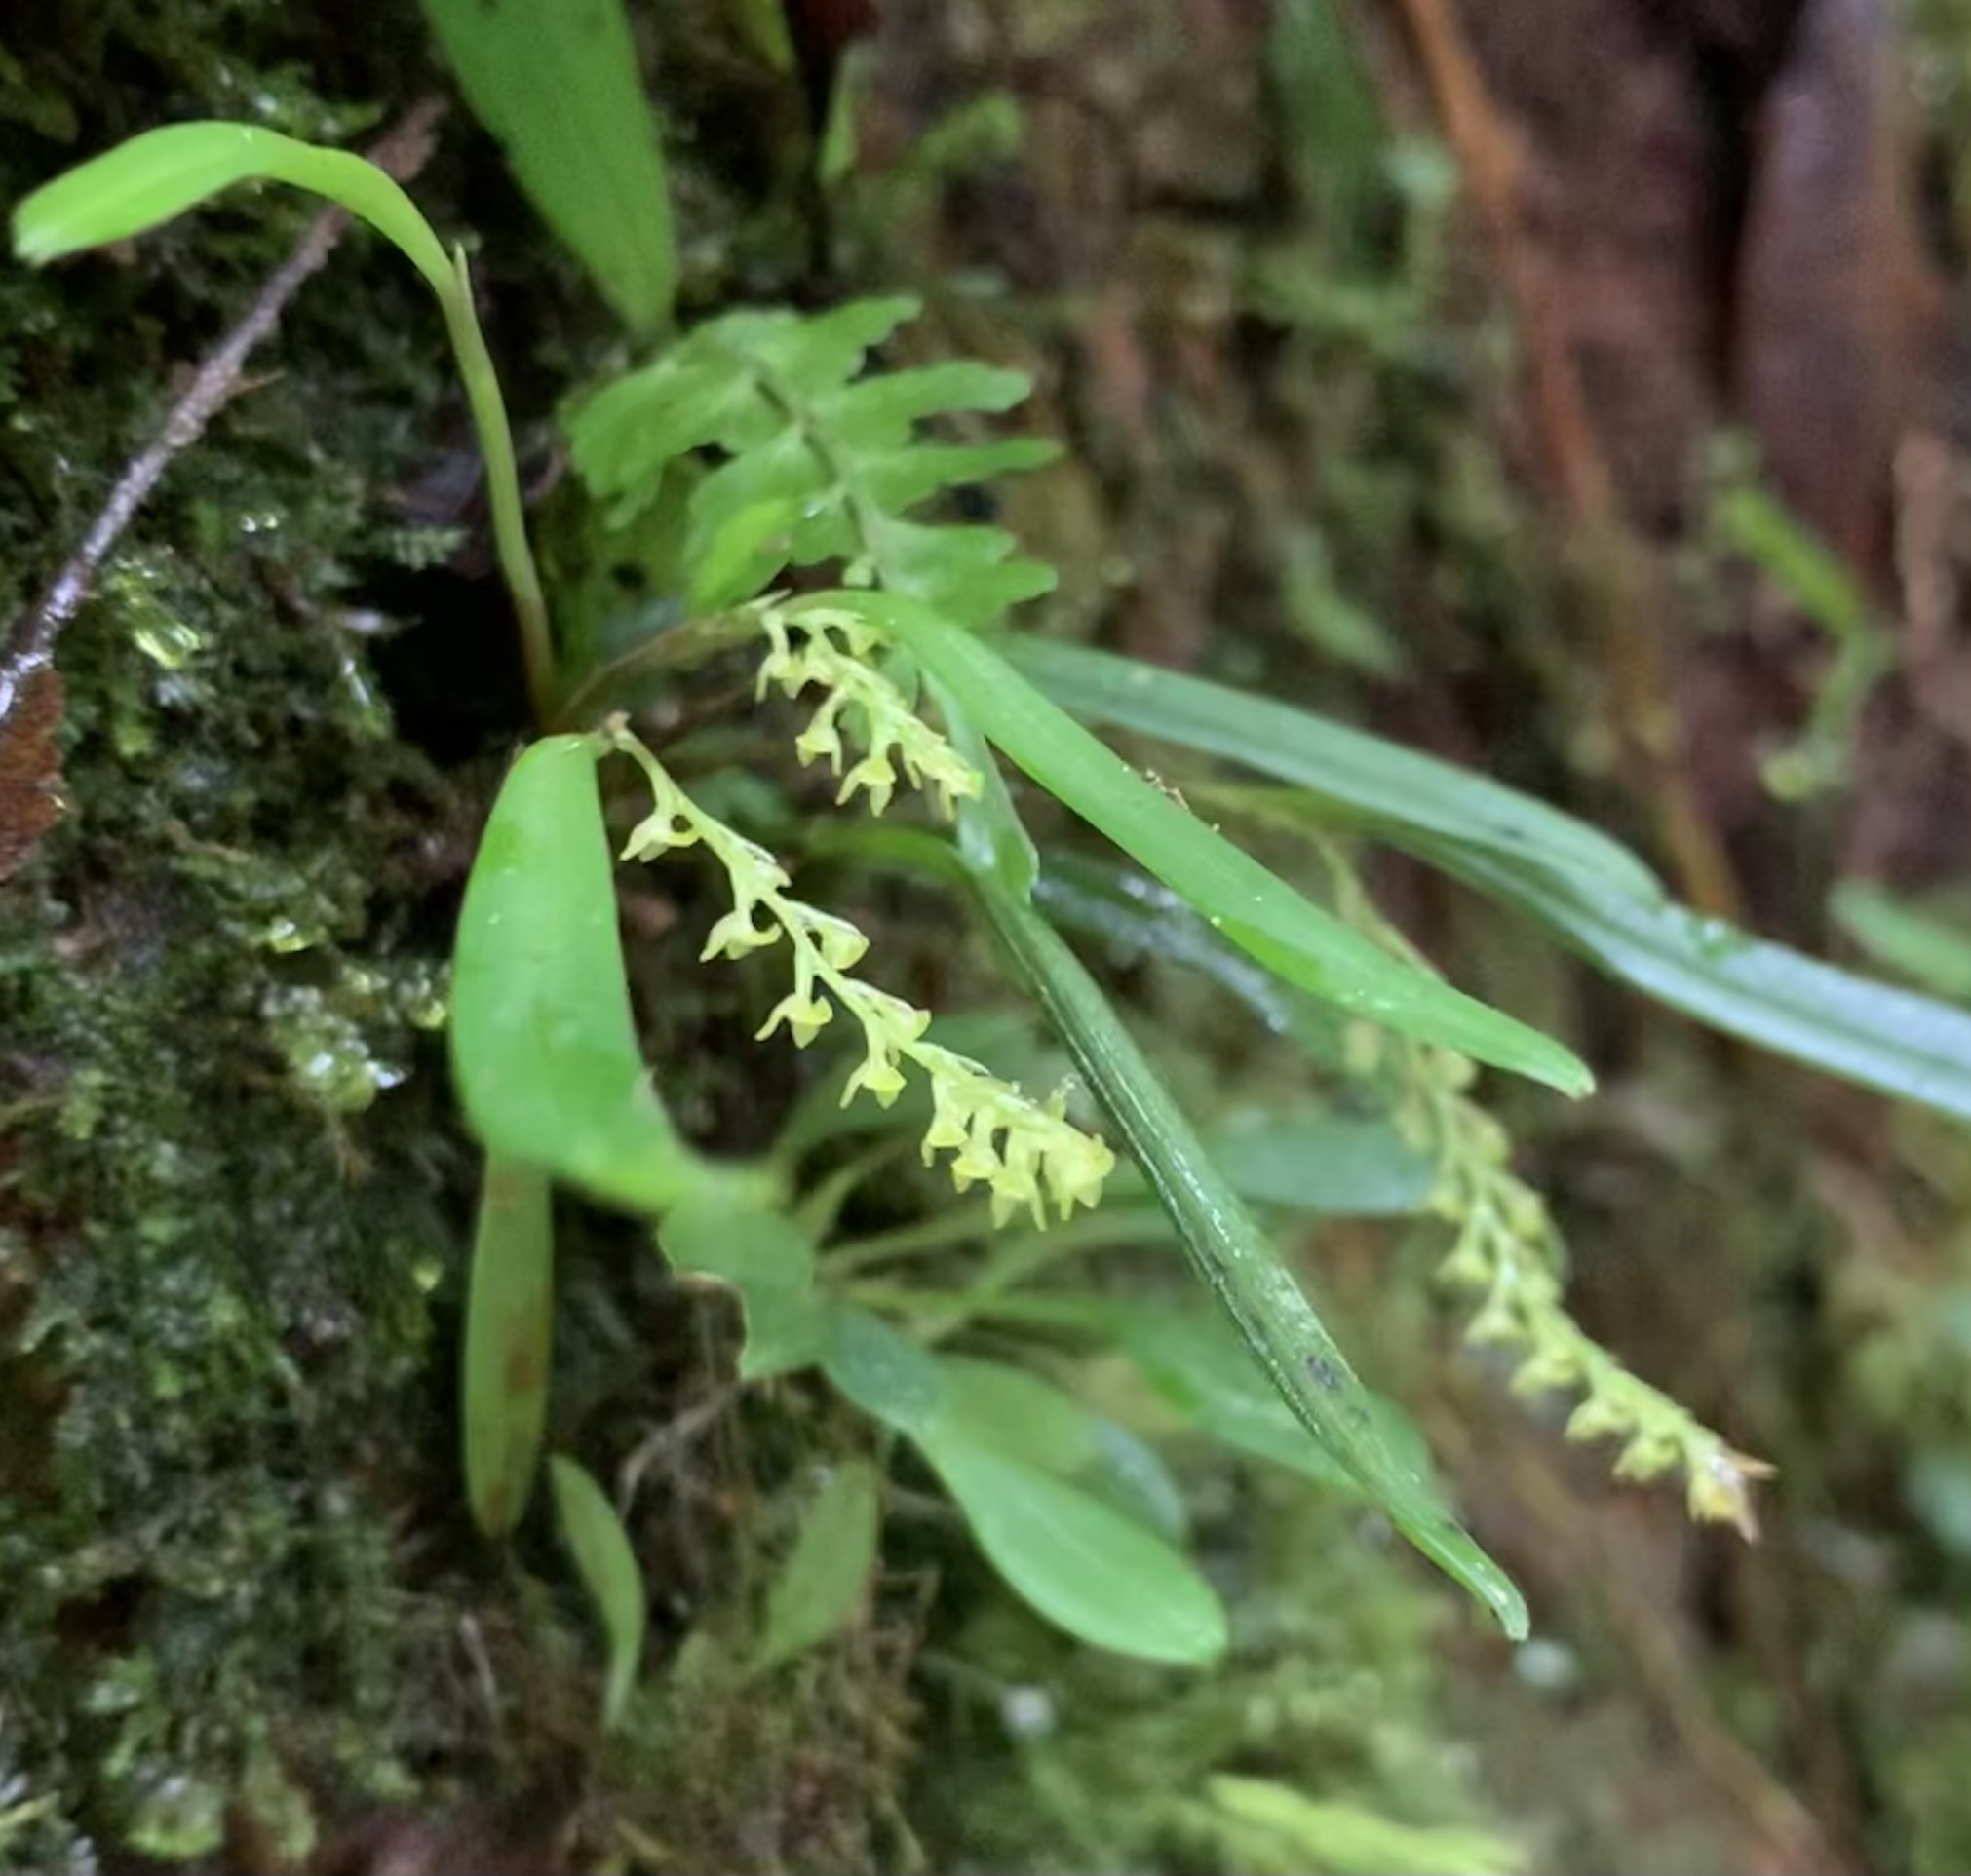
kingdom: Plantae
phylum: Tracheophyta
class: Liliopsida
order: Asparagales
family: Orchidaceae
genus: Stelis
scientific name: Stelis
